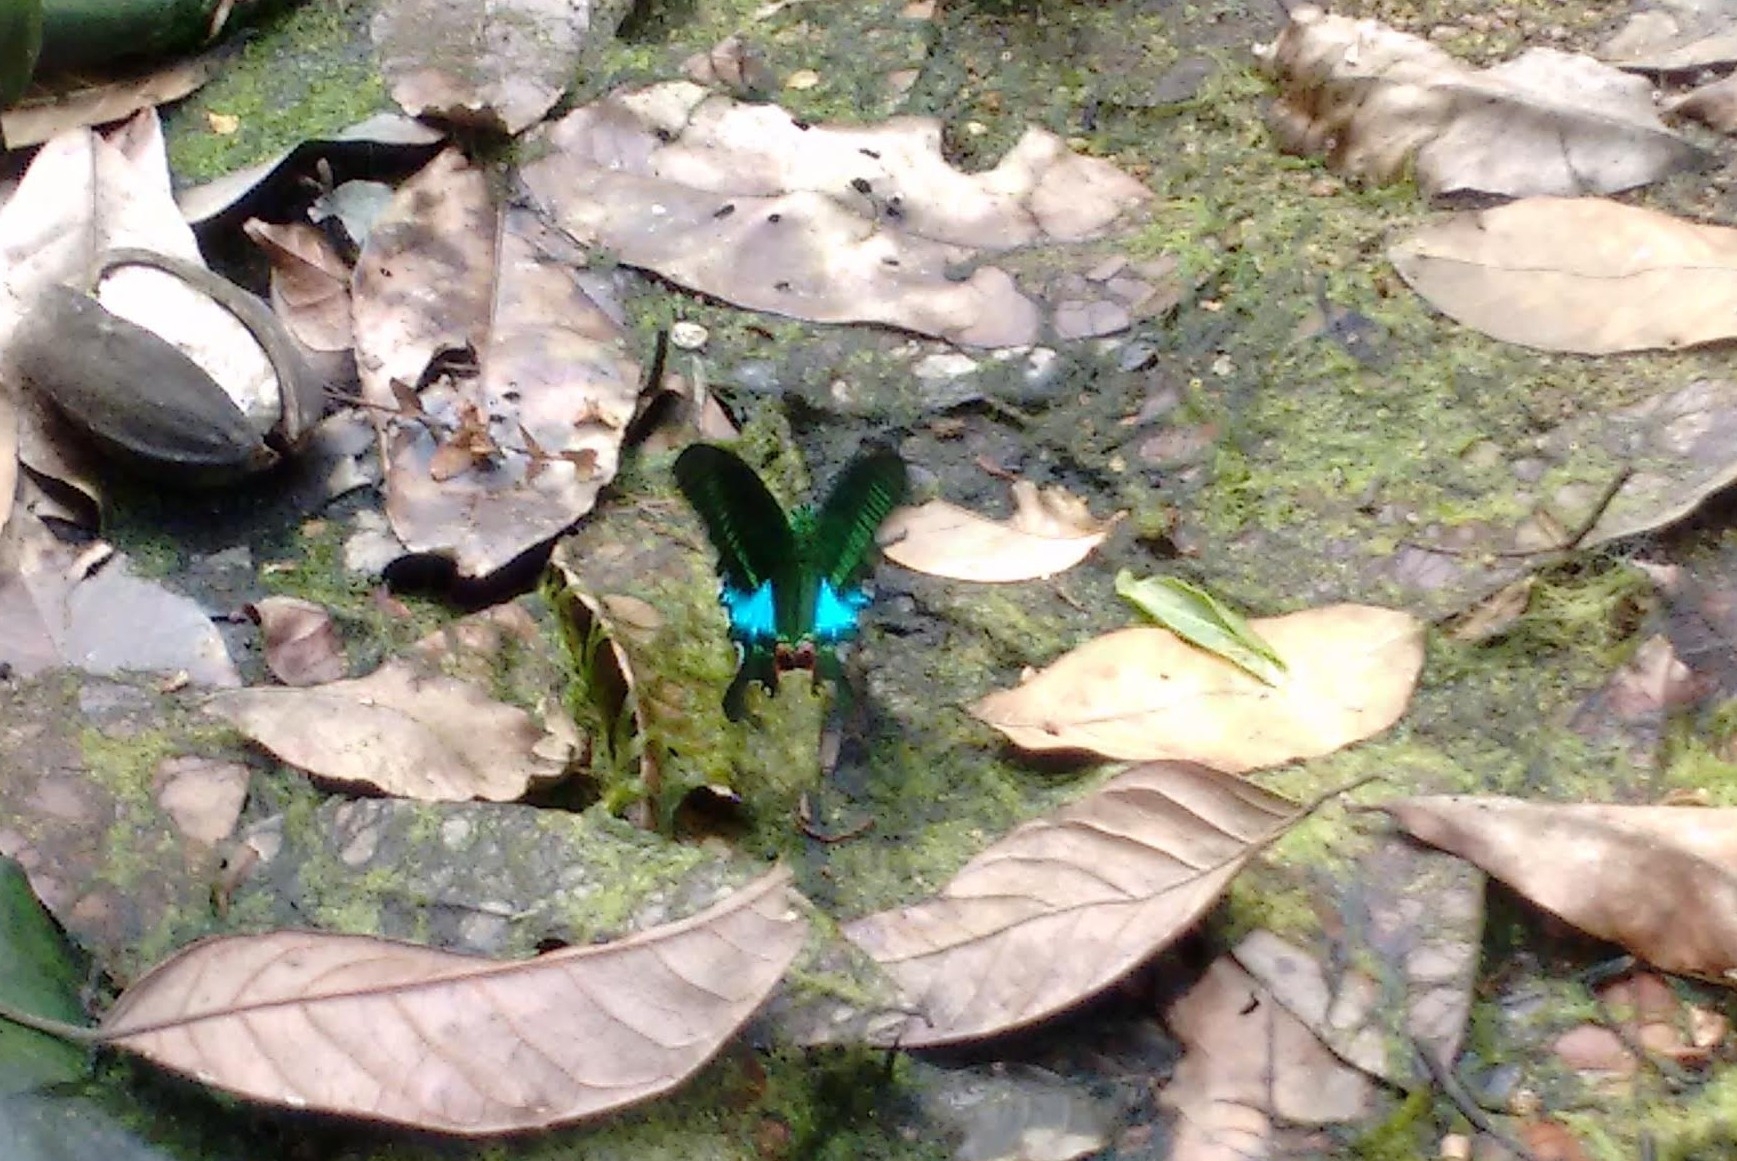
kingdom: Animalia
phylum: Arthropoda
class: Insecta
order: Lepidoptera
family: Papilionidae
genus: Papilio
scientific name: Papilio paris
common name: Paris peacock
